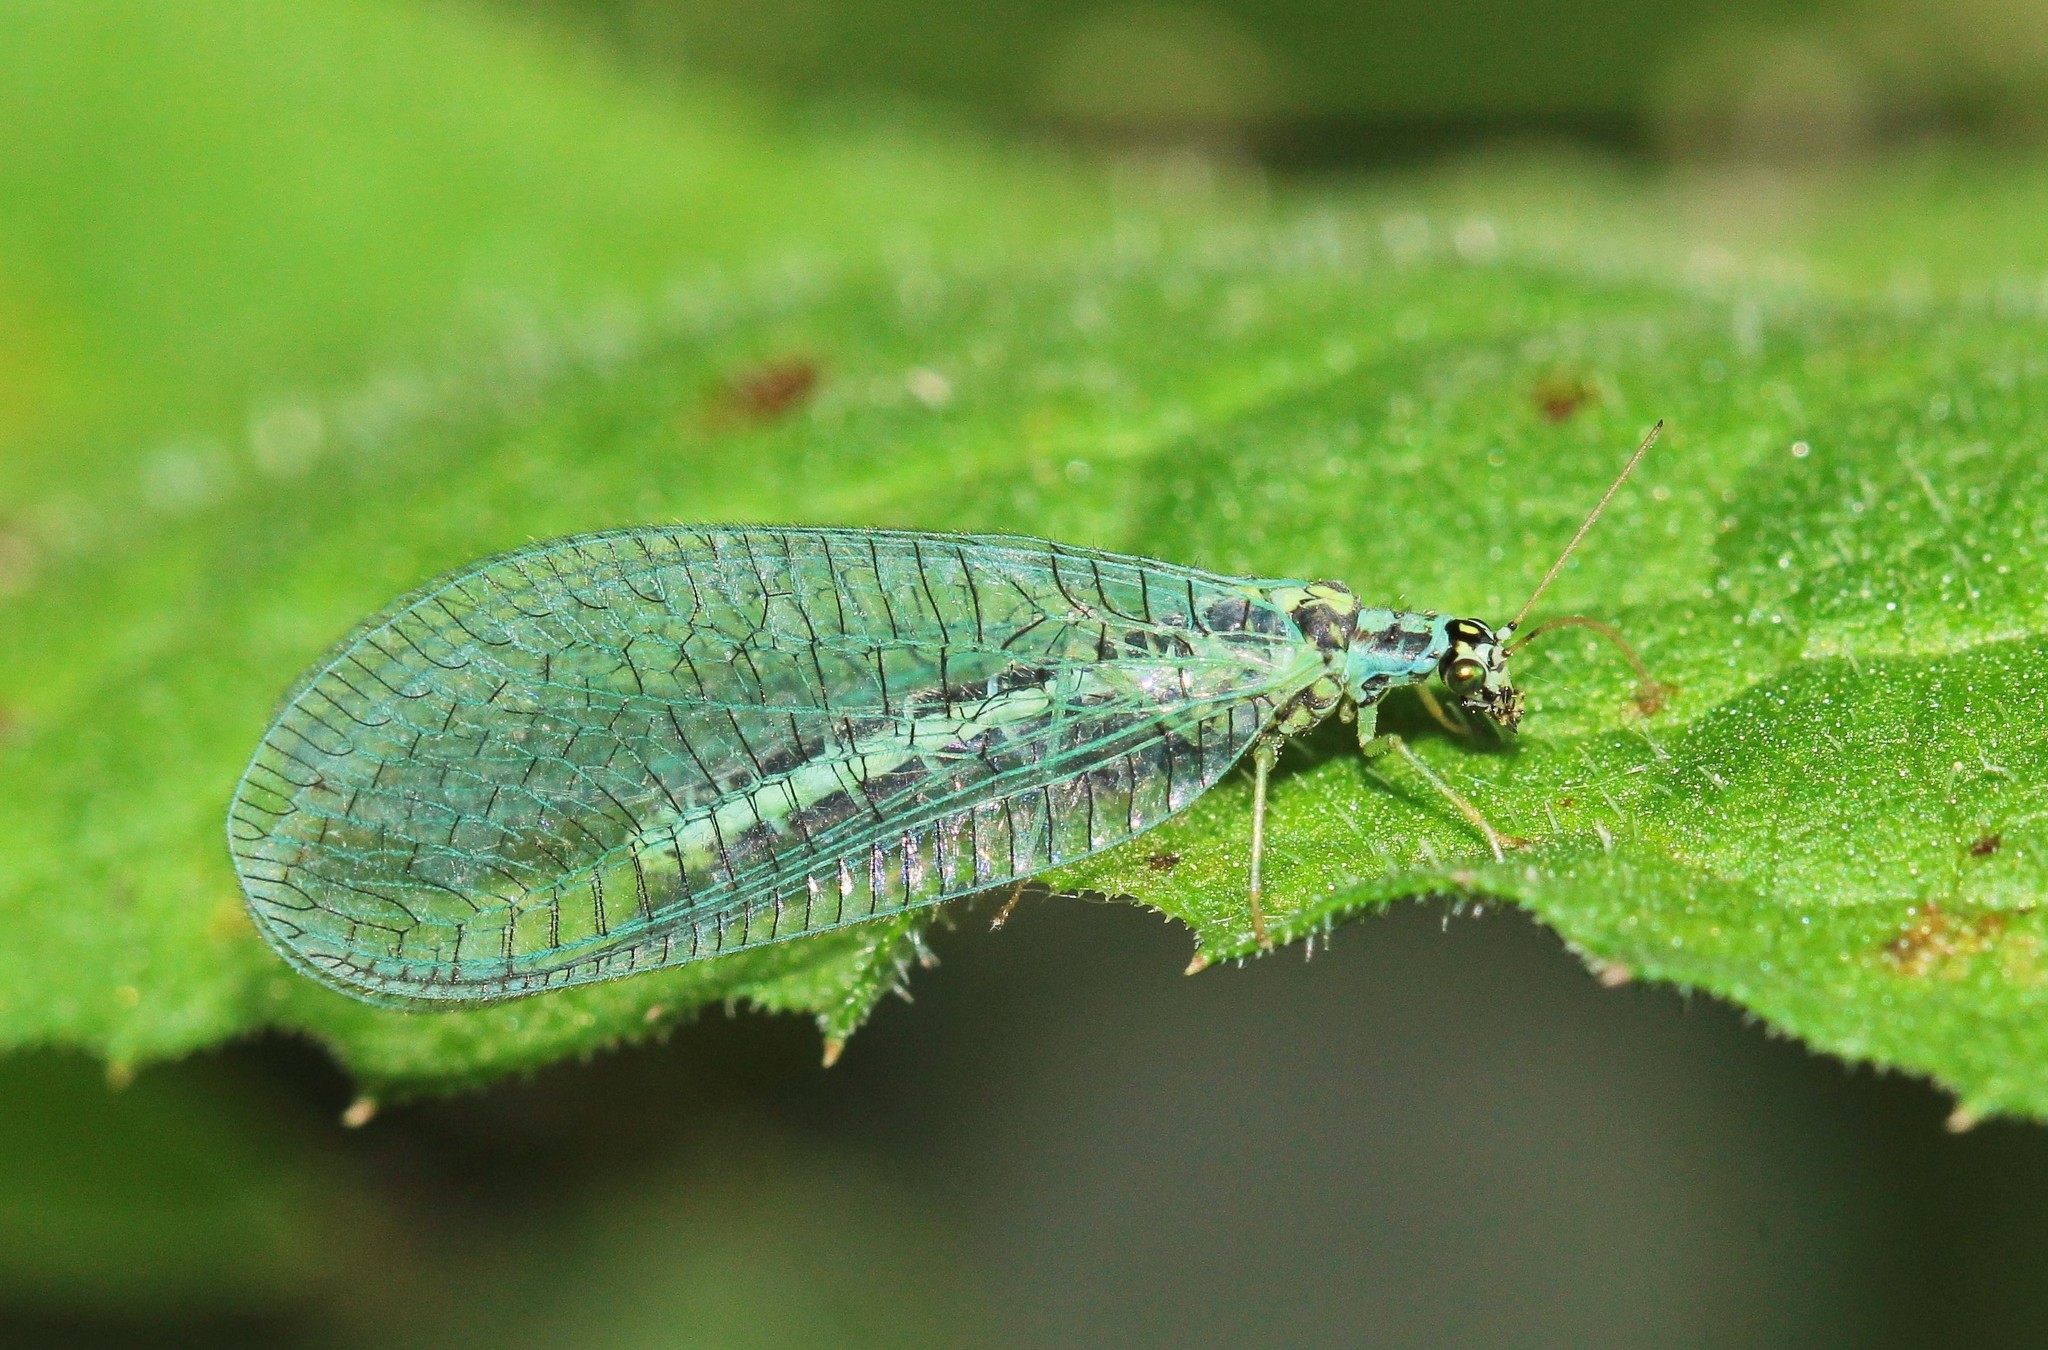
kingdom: Animalia
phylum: Arthropoda
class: Insecta
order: Neuroptera
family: Chrysopidae
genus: Chrysopa
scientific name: Chrysopa perla
